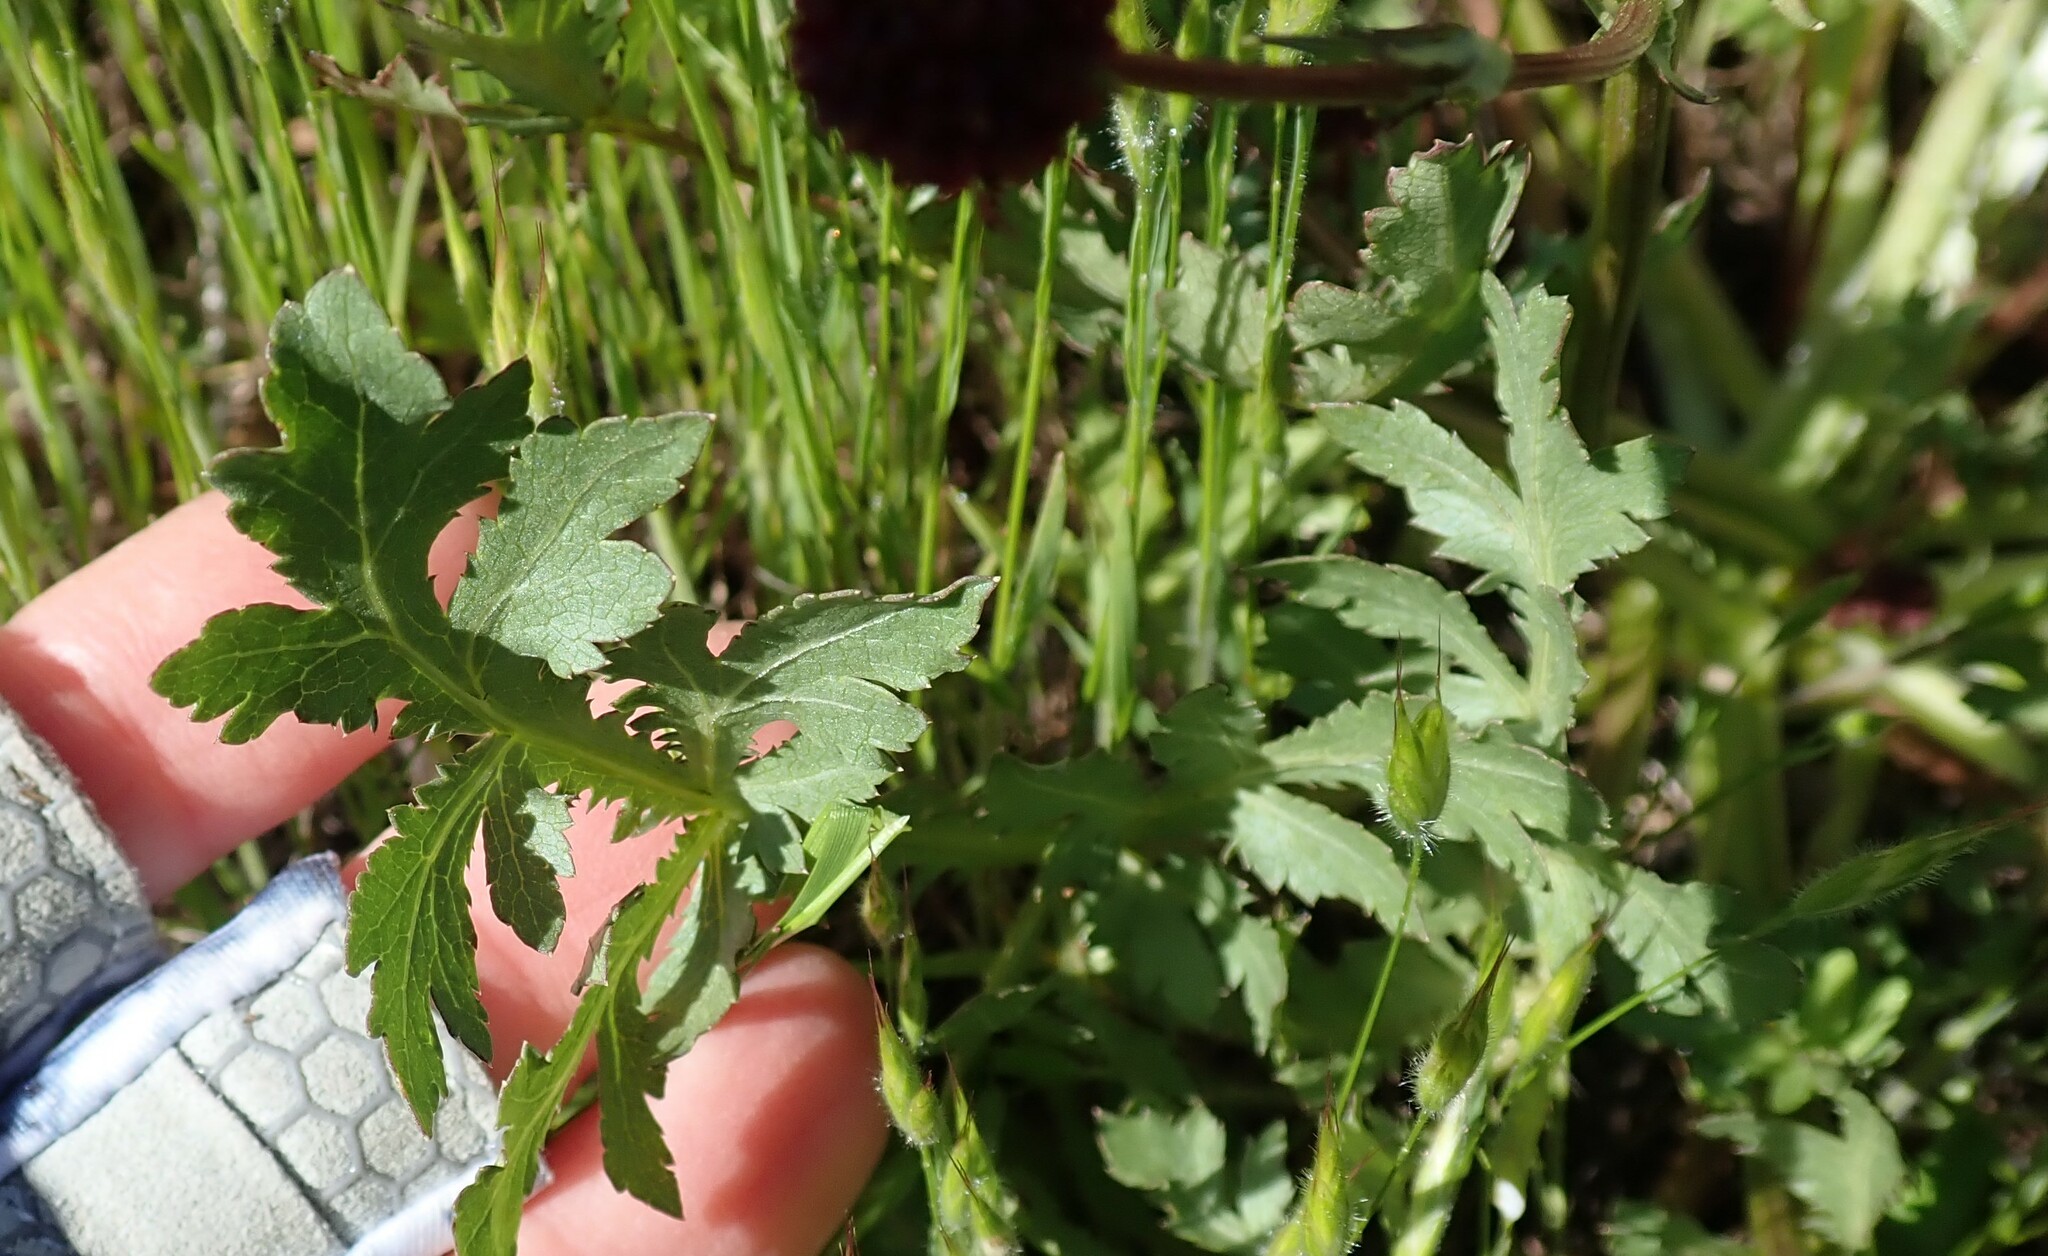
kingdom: Plantae
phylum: Tracheophyta
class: Magnoliopsida
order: Apiales
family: Apiaceae
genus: Sanicula
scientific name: Sanicula bipinnatifida
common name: Shoe-buttons
